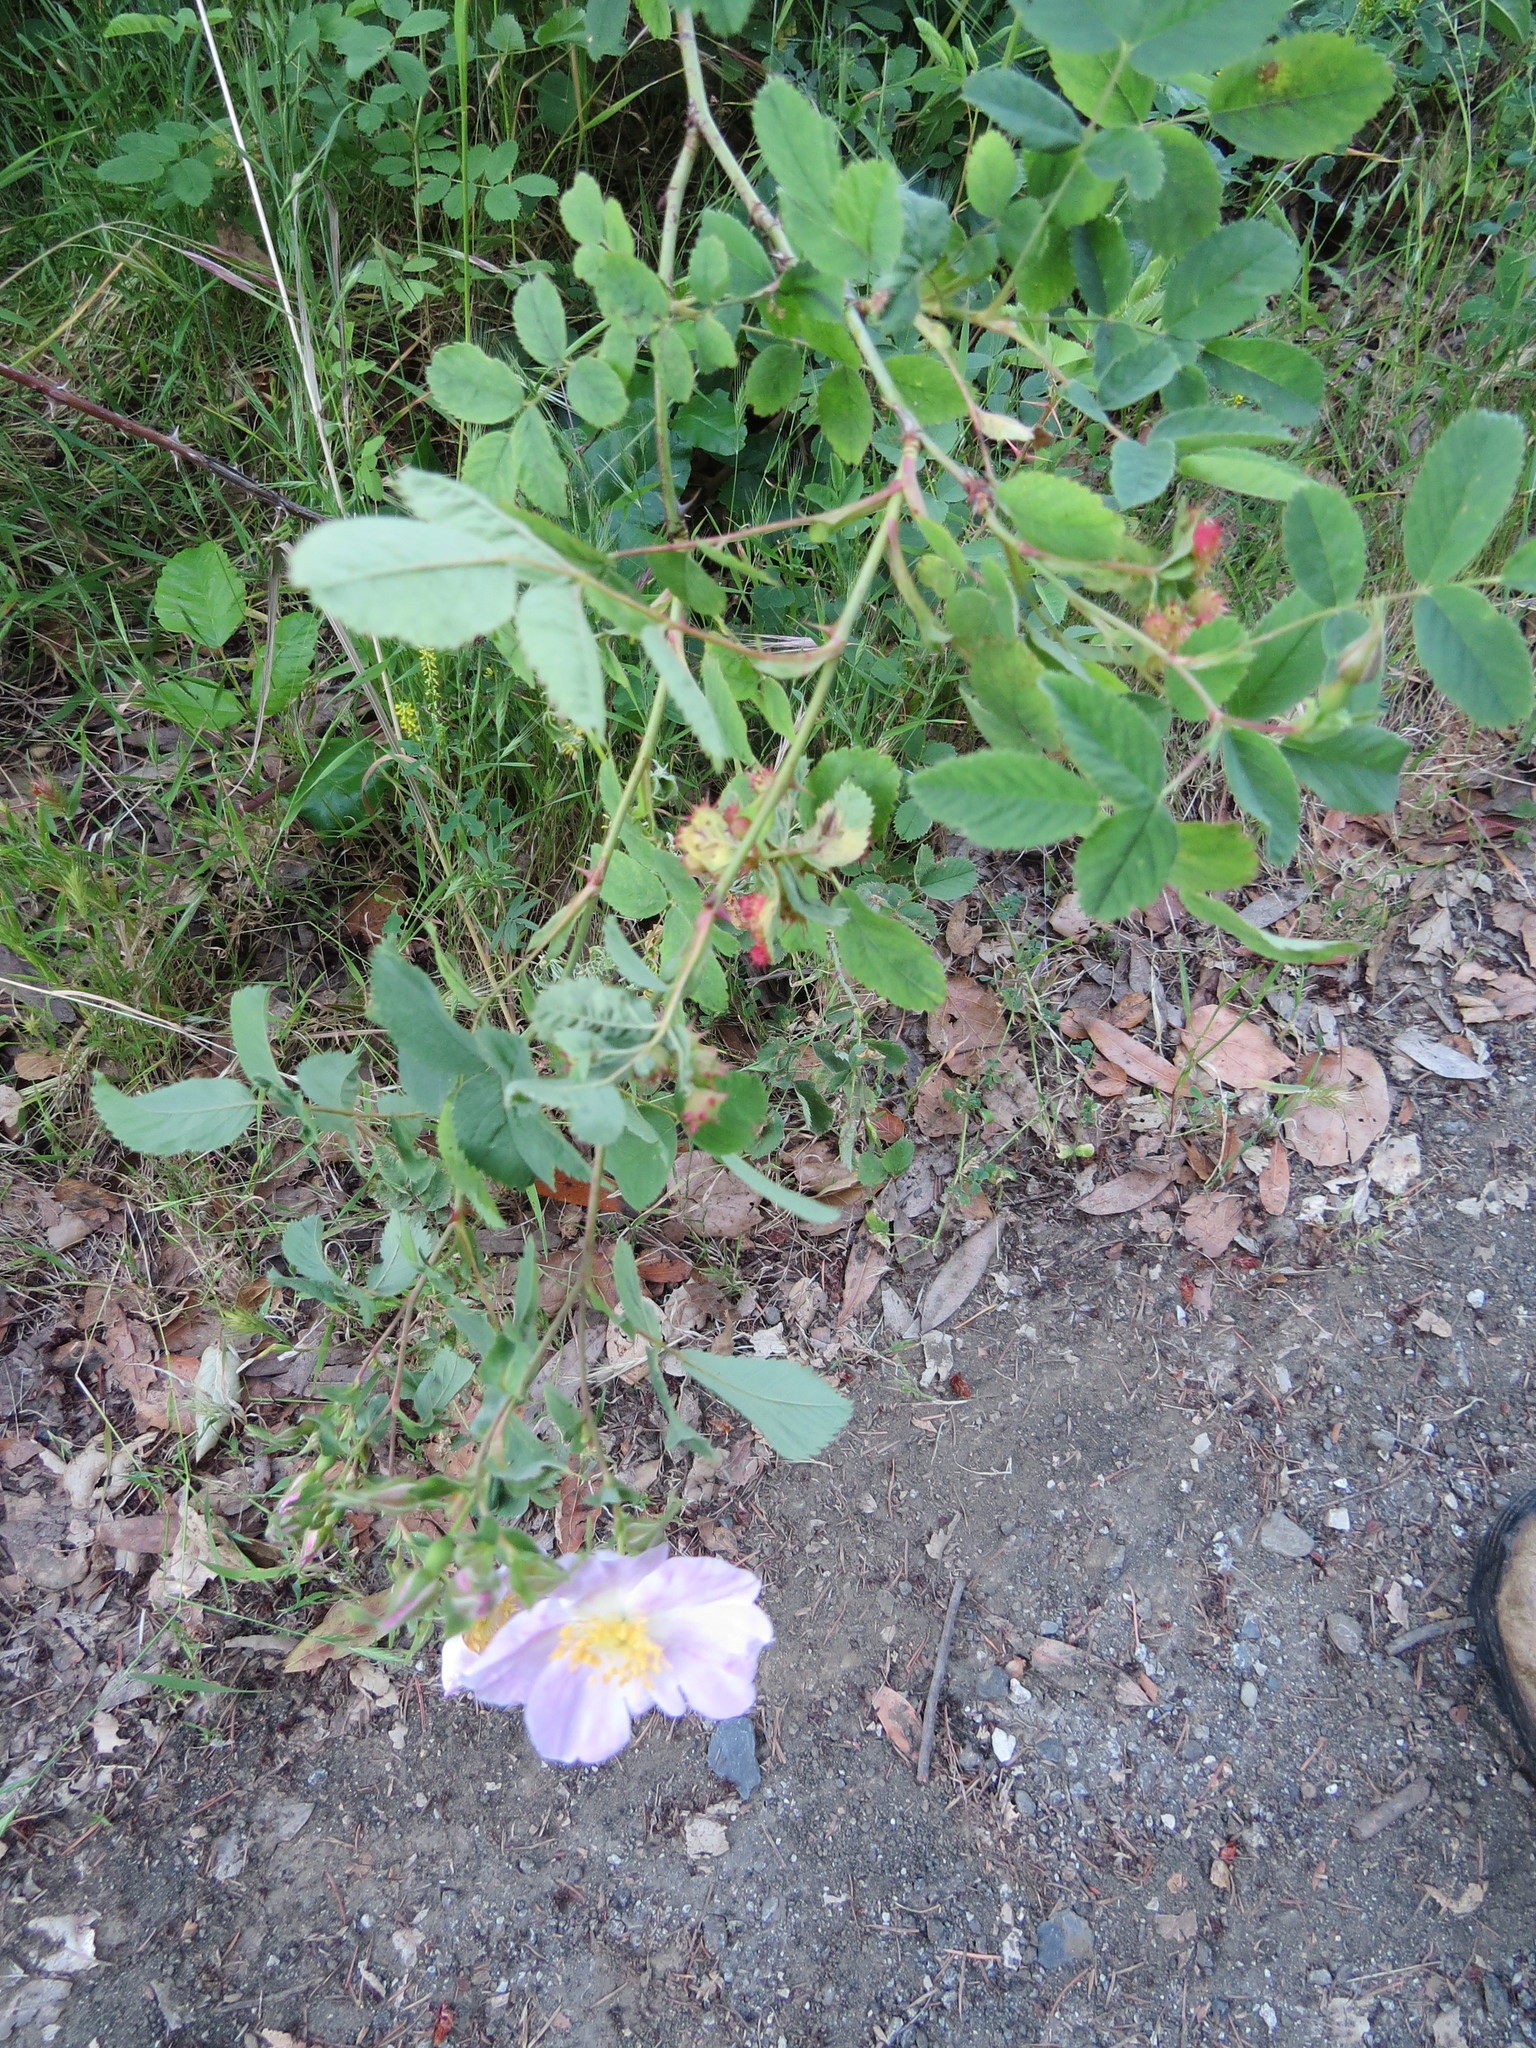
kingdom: Animalia
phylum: Arthropoda
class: Insecta
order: Hymenoptera
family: Cynipidae
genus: Diplolepis
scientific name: Diplolepis polita
